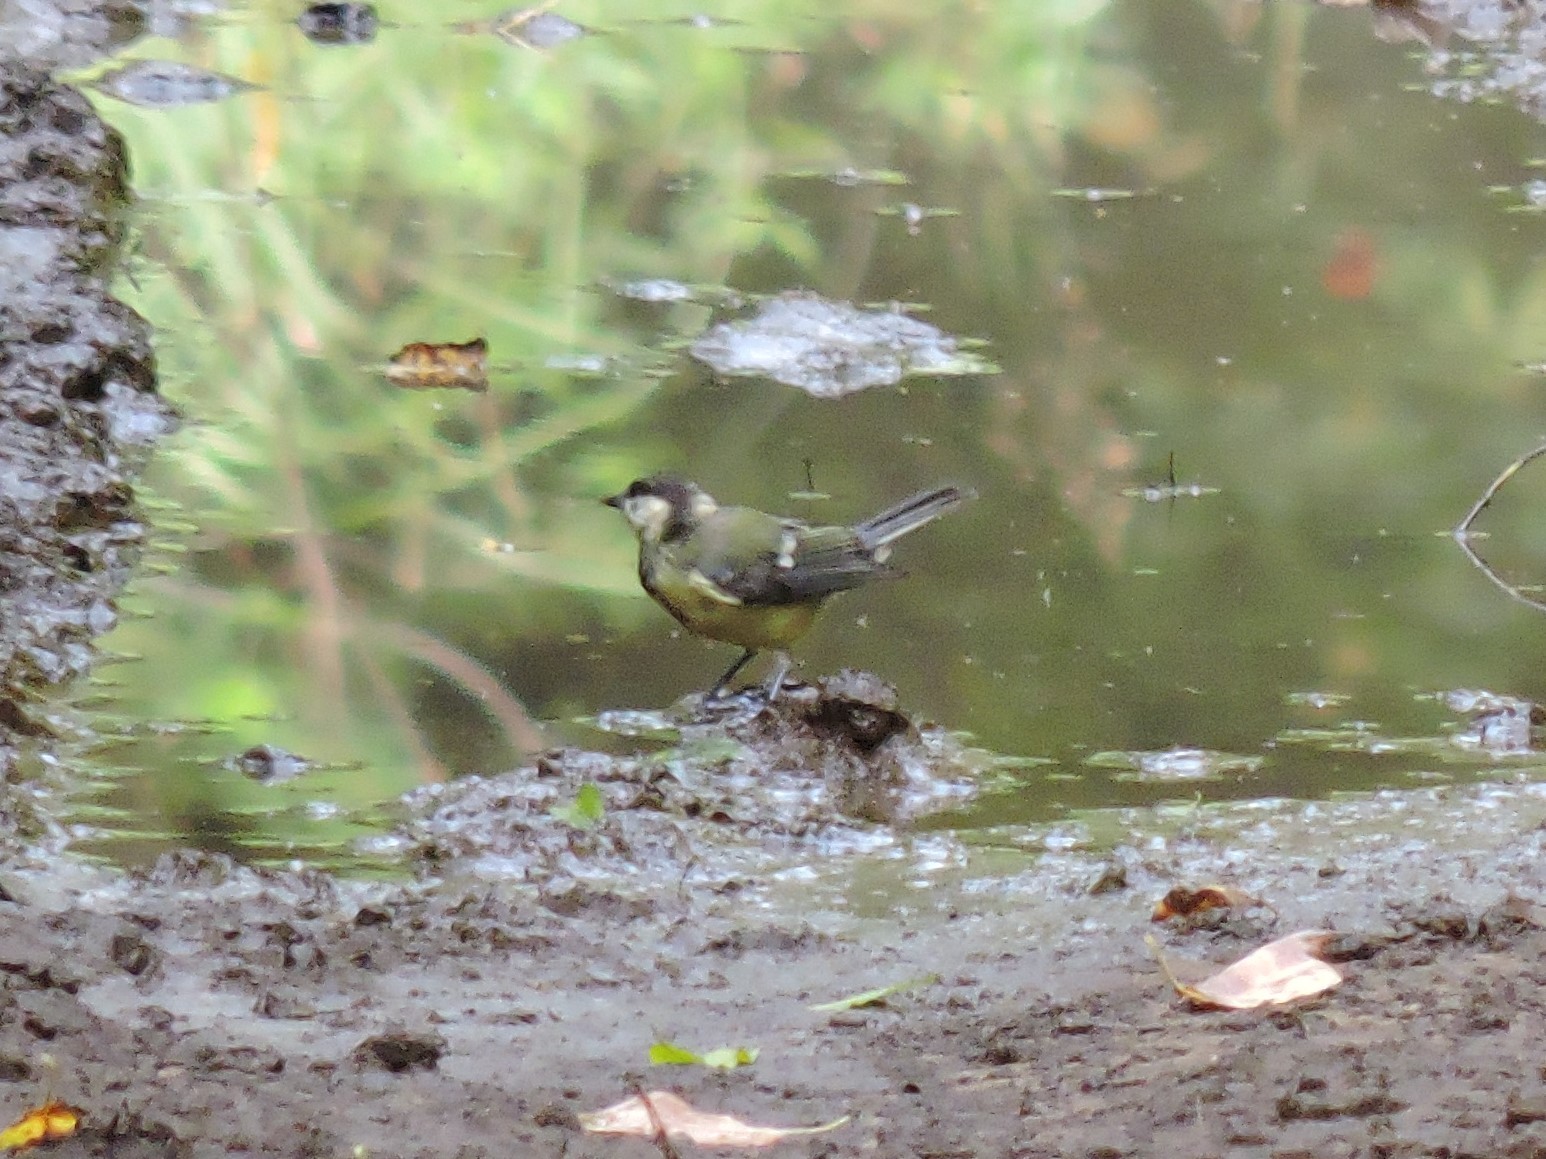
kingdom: Animalia
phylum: Chordata
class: Aves
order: Passeriformes
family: Paridae
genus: Parus
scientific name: Parus major
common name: Great tit
